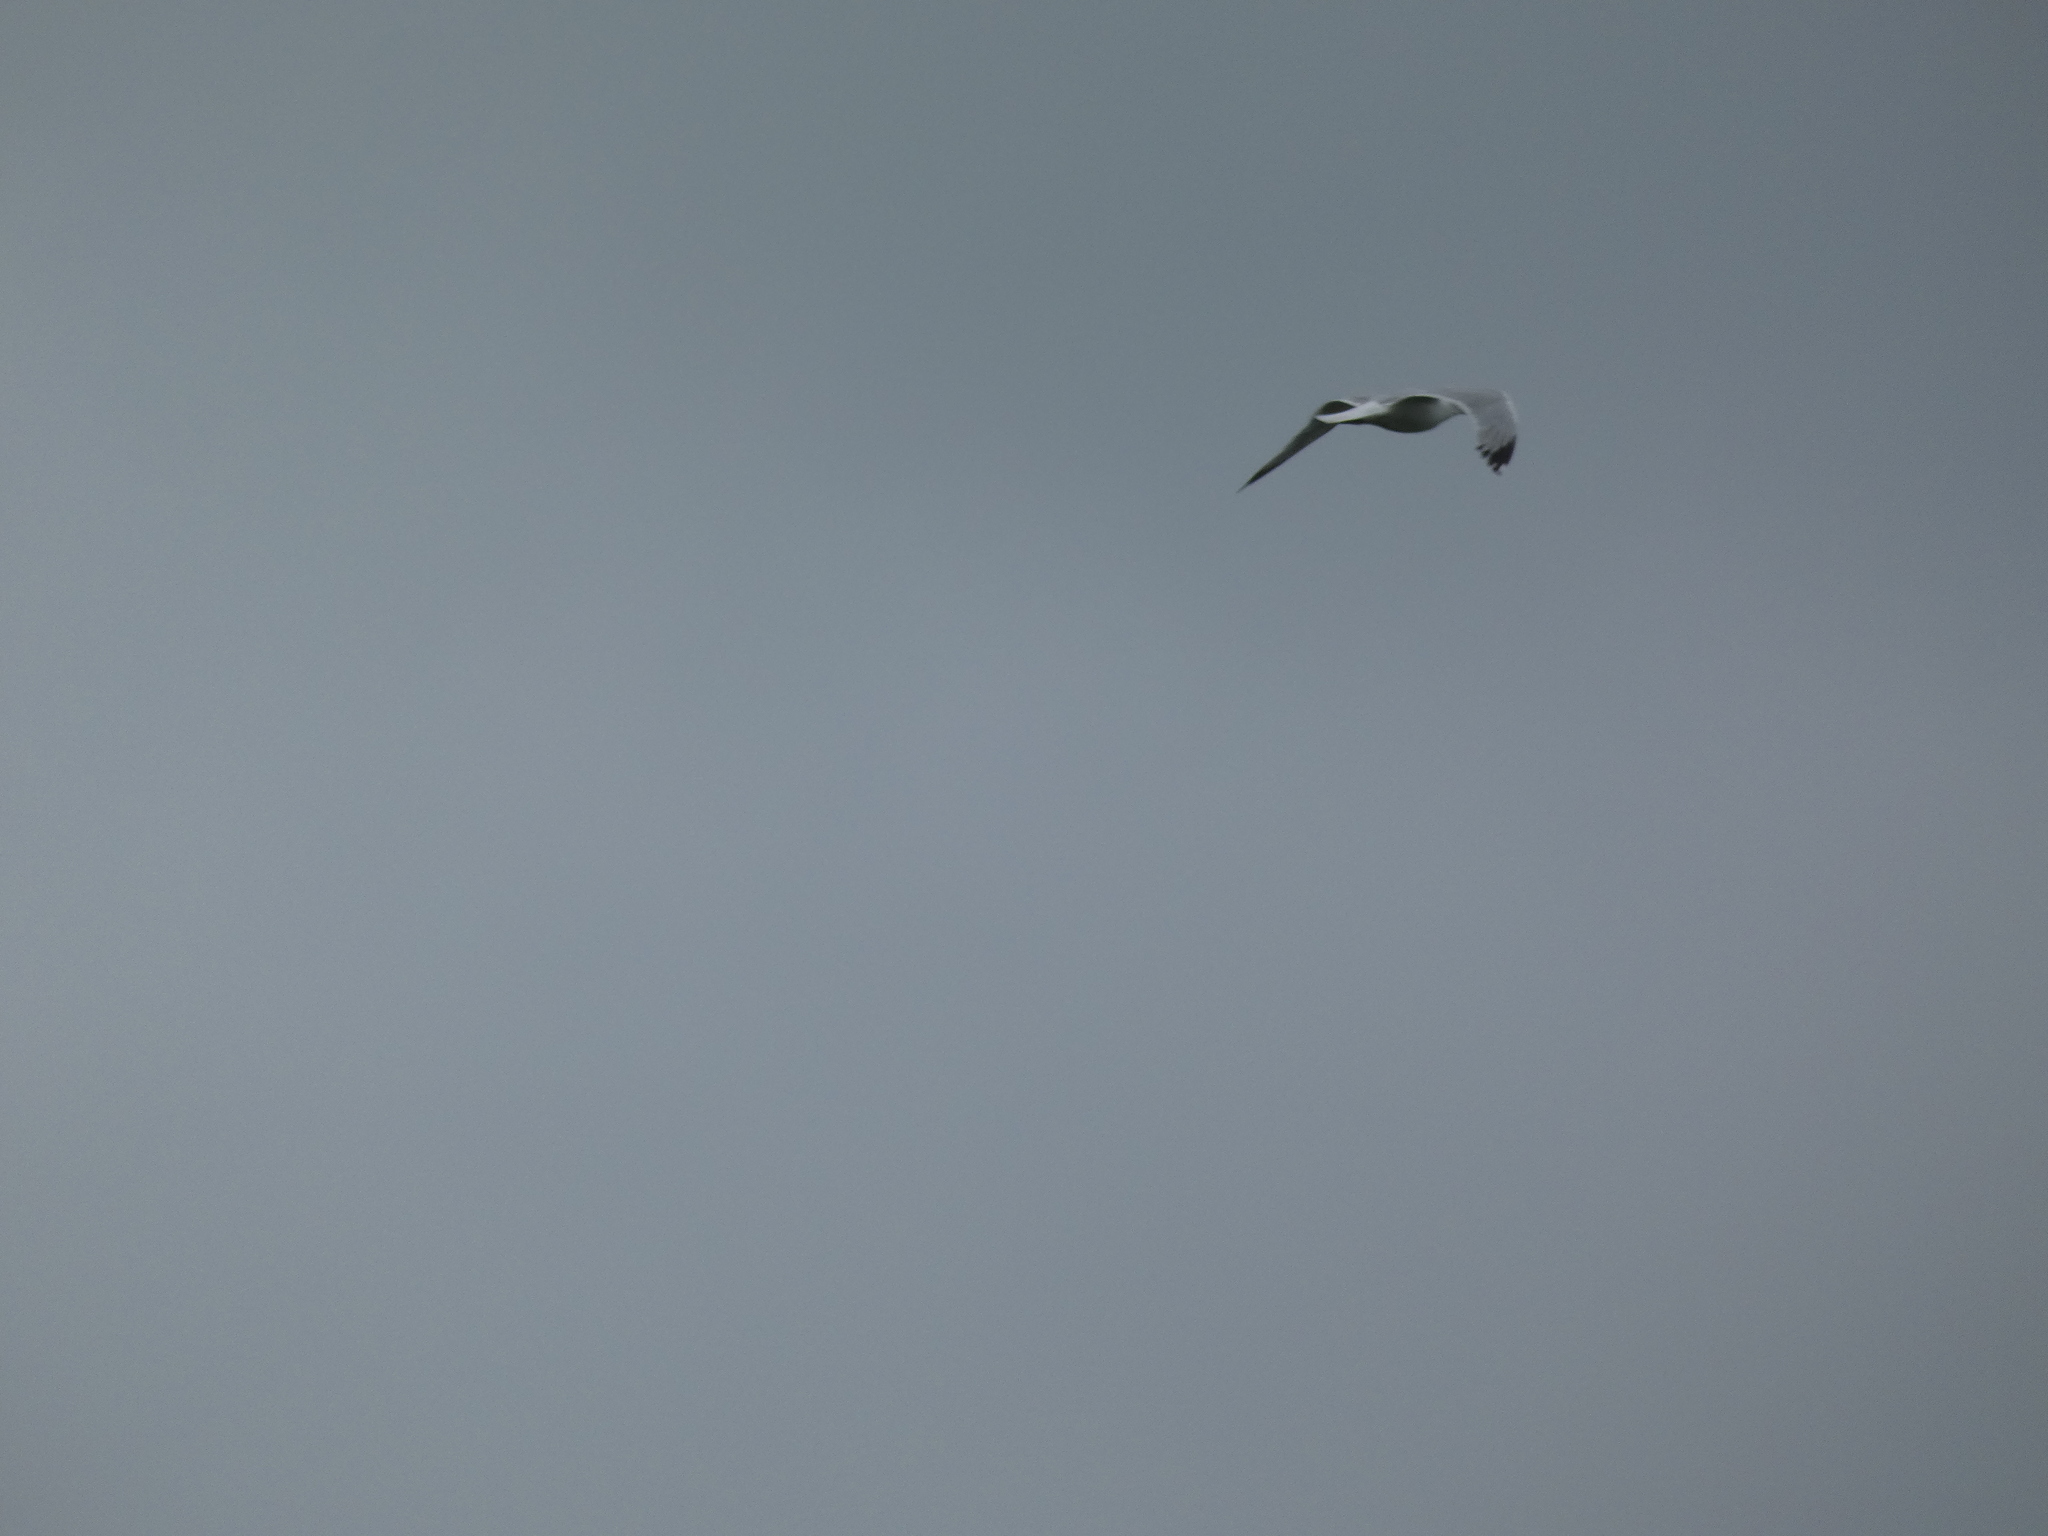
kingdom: Animalia
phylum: Chordata
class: Aves
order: Charadriiformes
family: Laridae
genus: Larus
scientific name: Larus argentatus
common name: Herring gull
